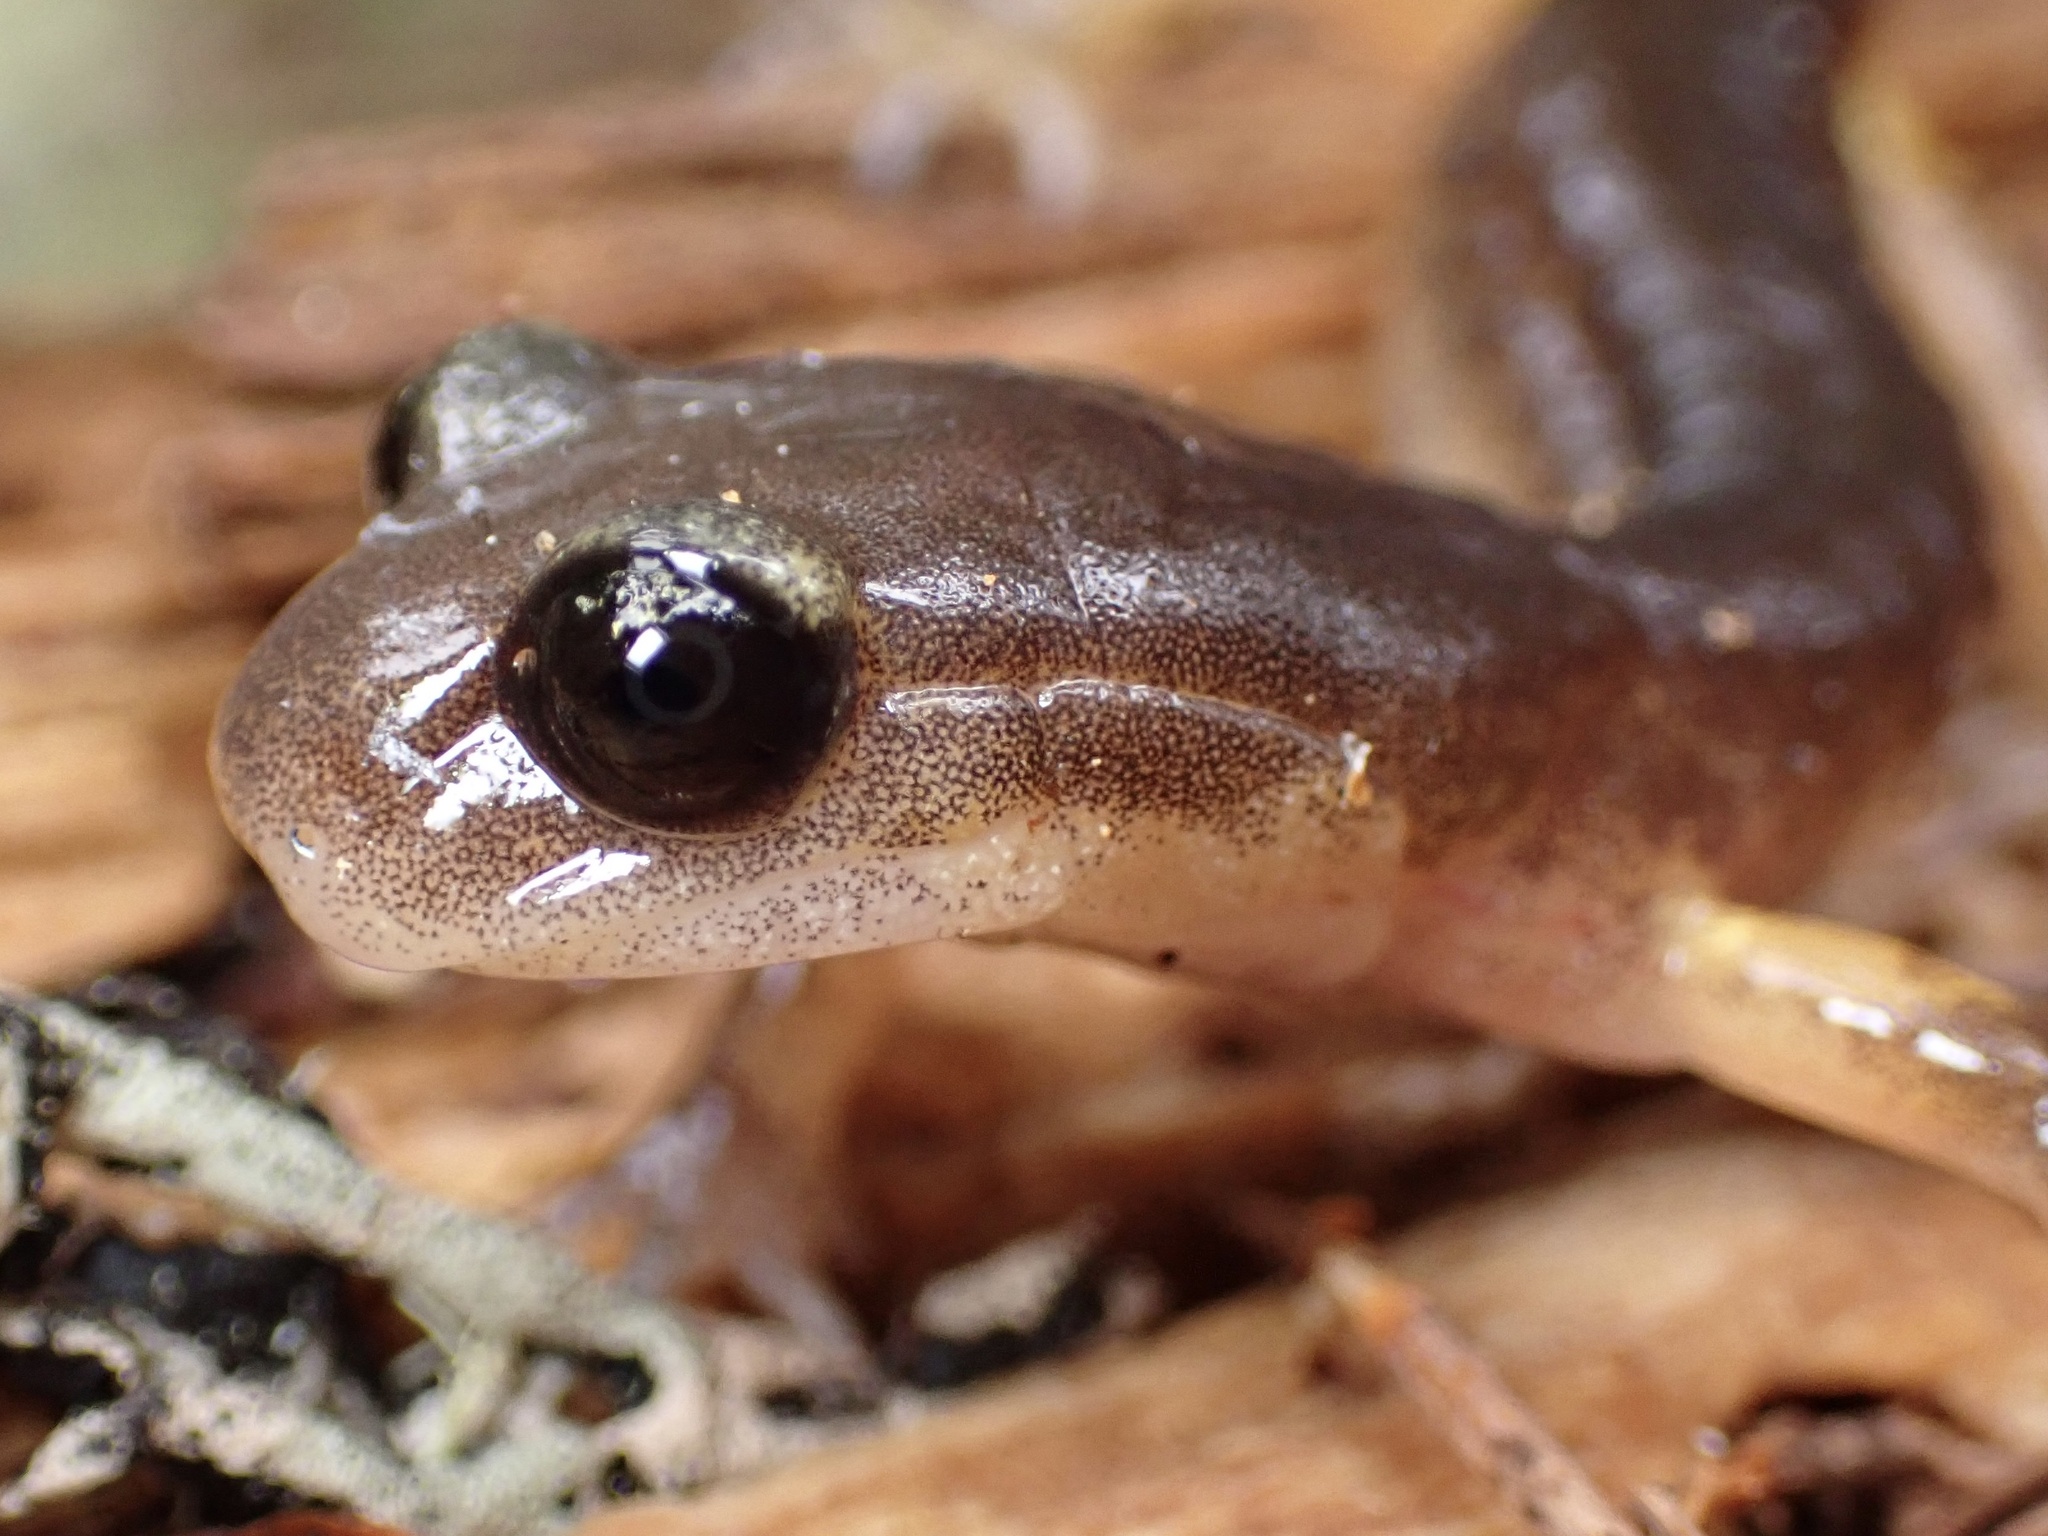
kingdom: Animalia
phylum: Chordata
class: Amphibia
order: Caudata
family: Plethodontidae
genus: Ensatina
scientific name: Ensatina eschscholtzii
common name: Ensatina
